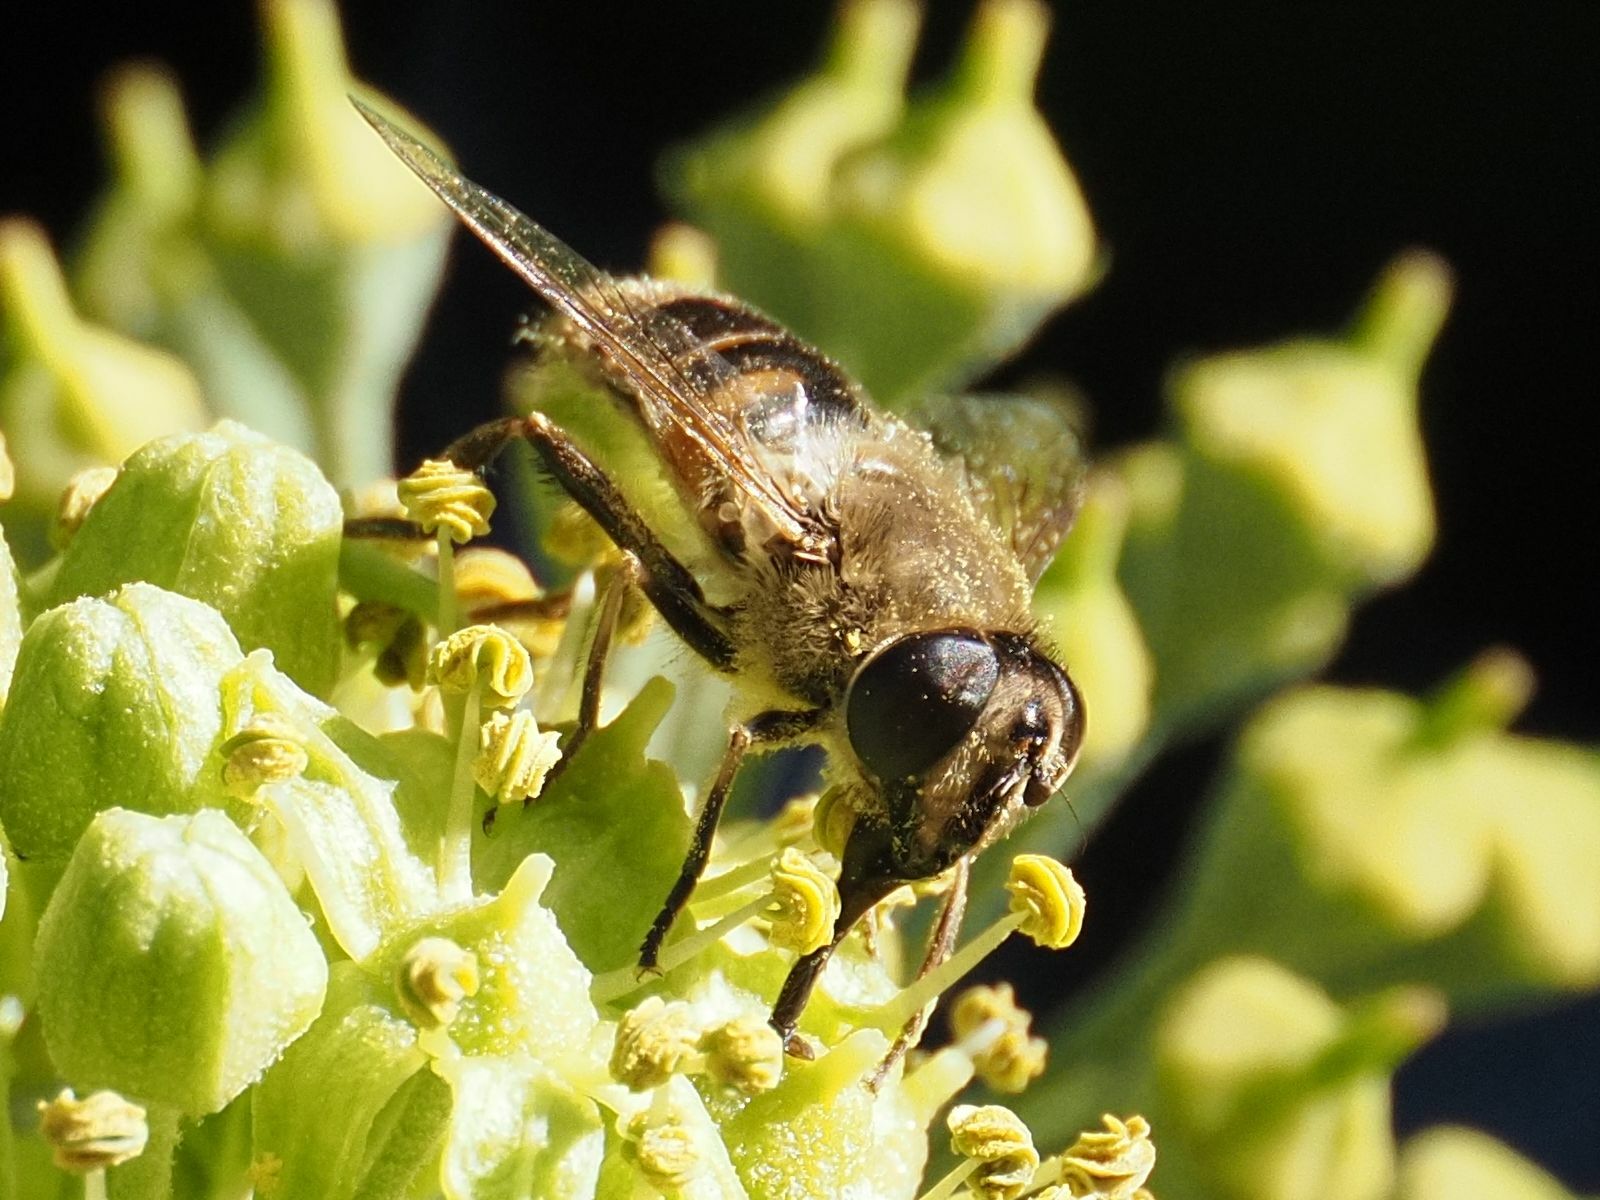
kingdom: Animalia
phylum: Arthropoda
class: Insecta
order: Diptera
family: Syrphidae
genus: Eristalis
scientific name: Eristalis tenax
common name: Drone fly
